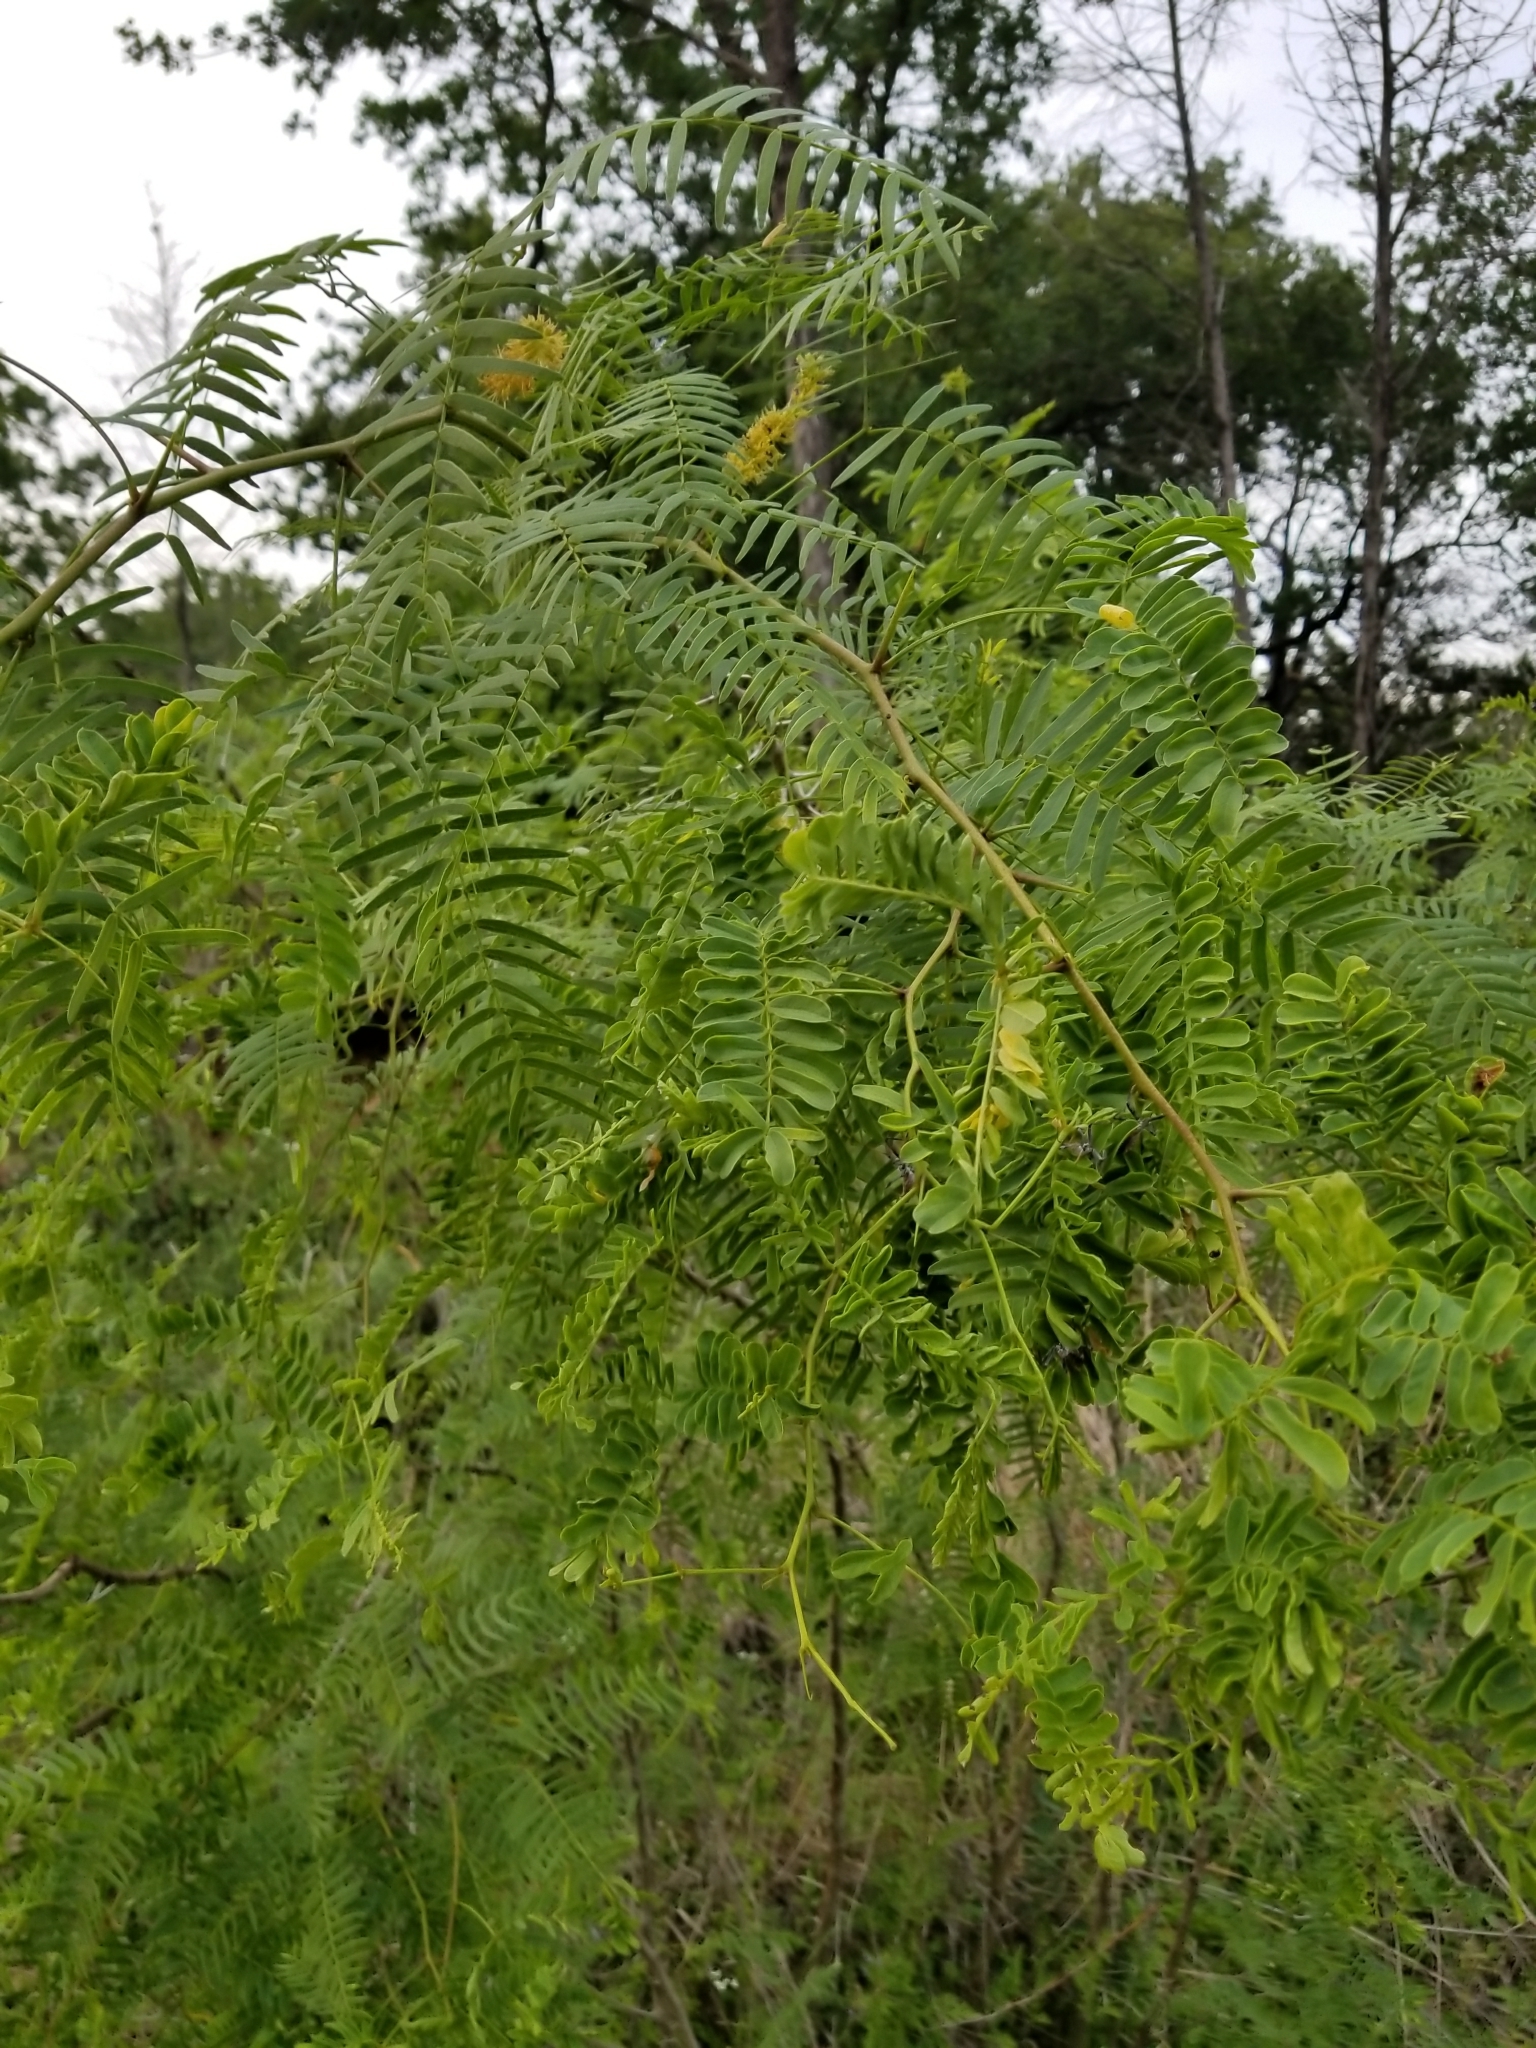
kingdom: Plantae
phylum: Tracheophyta
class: Magnoliopsida
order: Fabales
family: Fabaceae
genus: Prosopis
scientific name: Prosopis glandulosa
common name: Honey mesquite
